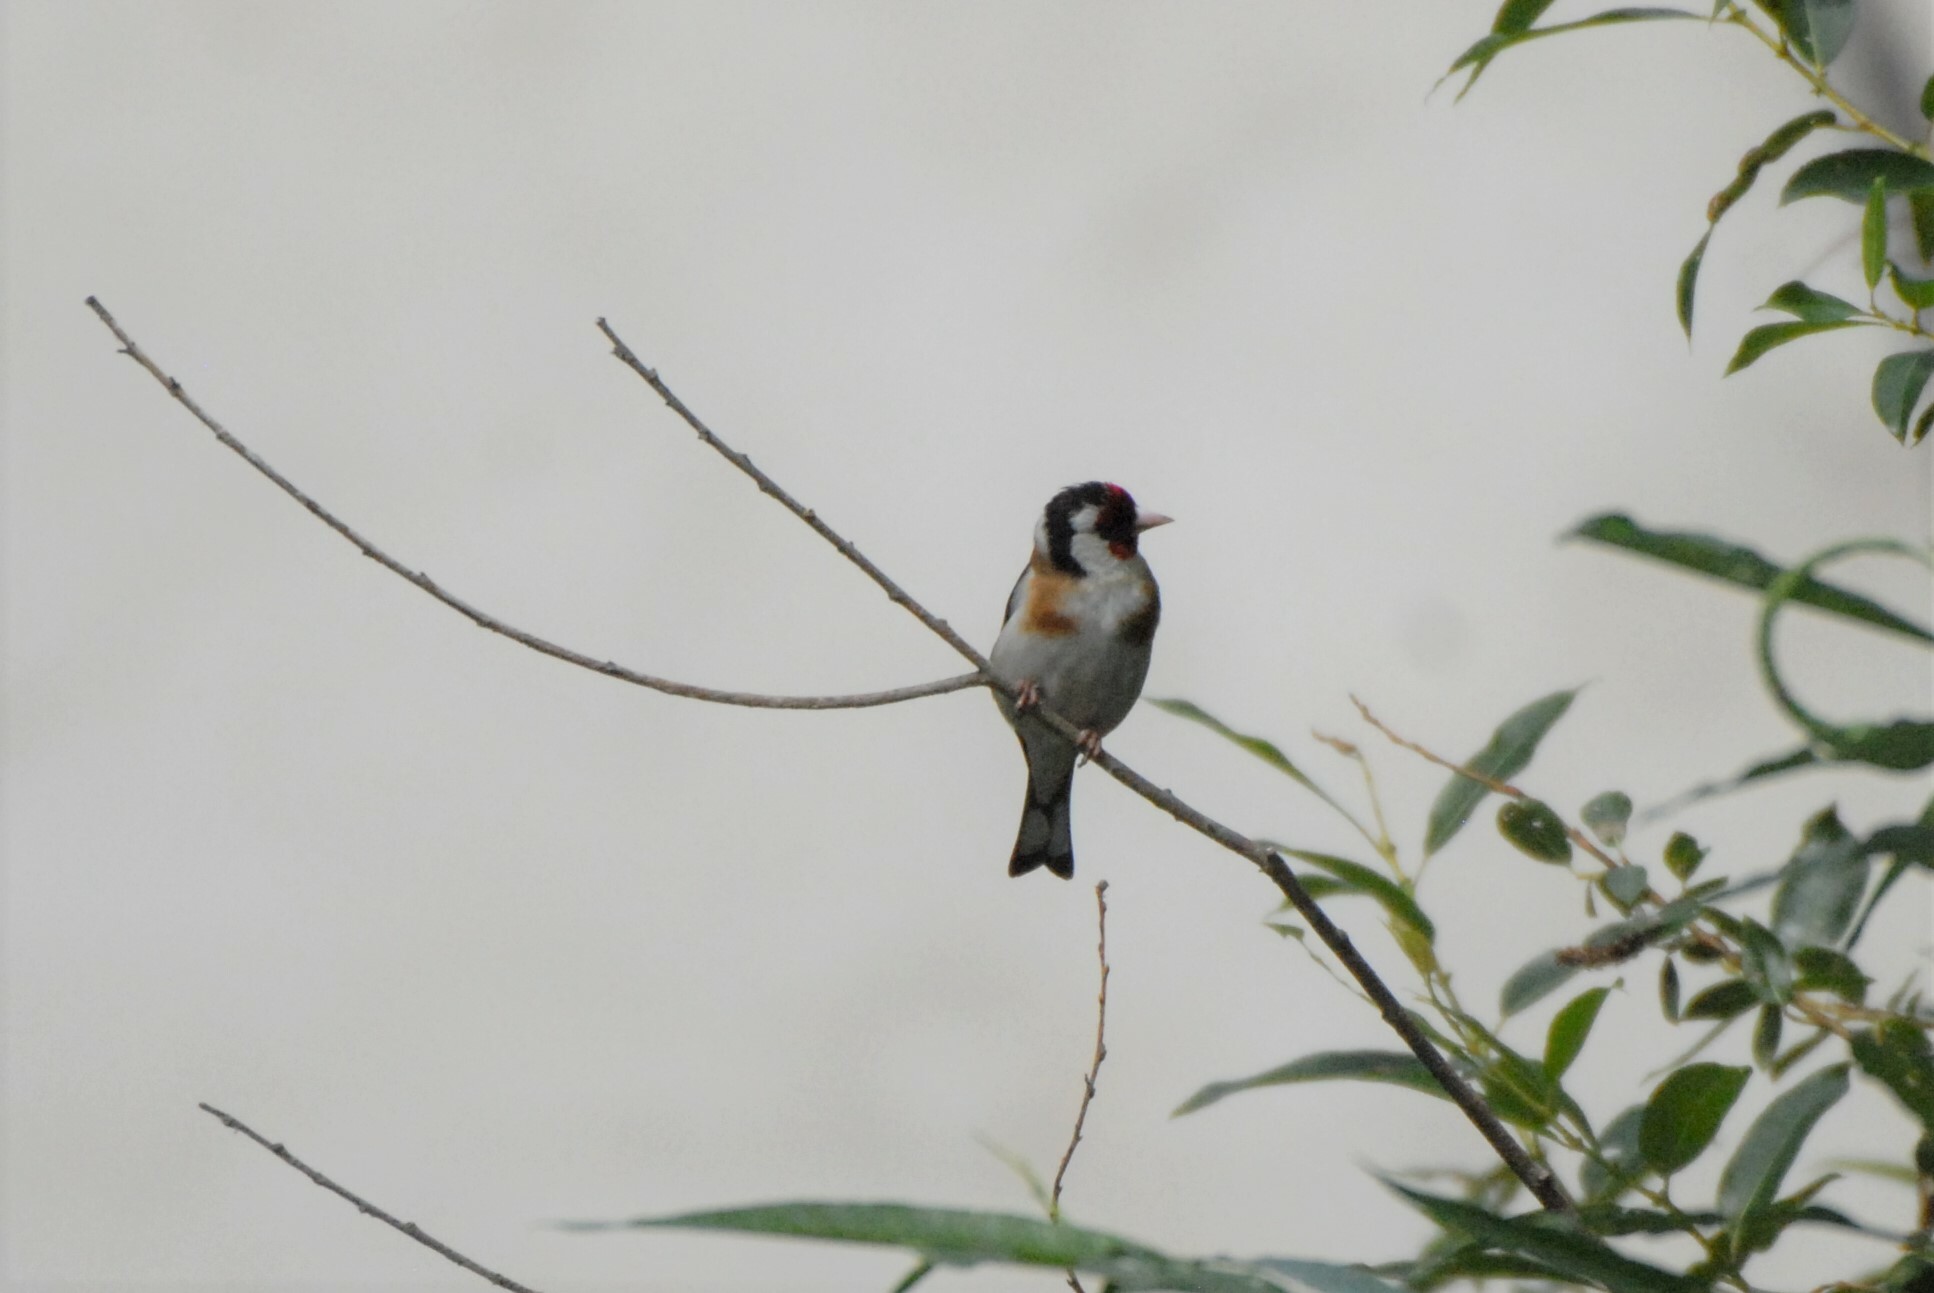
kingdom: Animalia
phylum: Chordata
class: Aves
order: Passeriformes
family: Fringillidae
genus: Carduelis
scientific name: Carduelis carduelis
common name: European goldfinch
